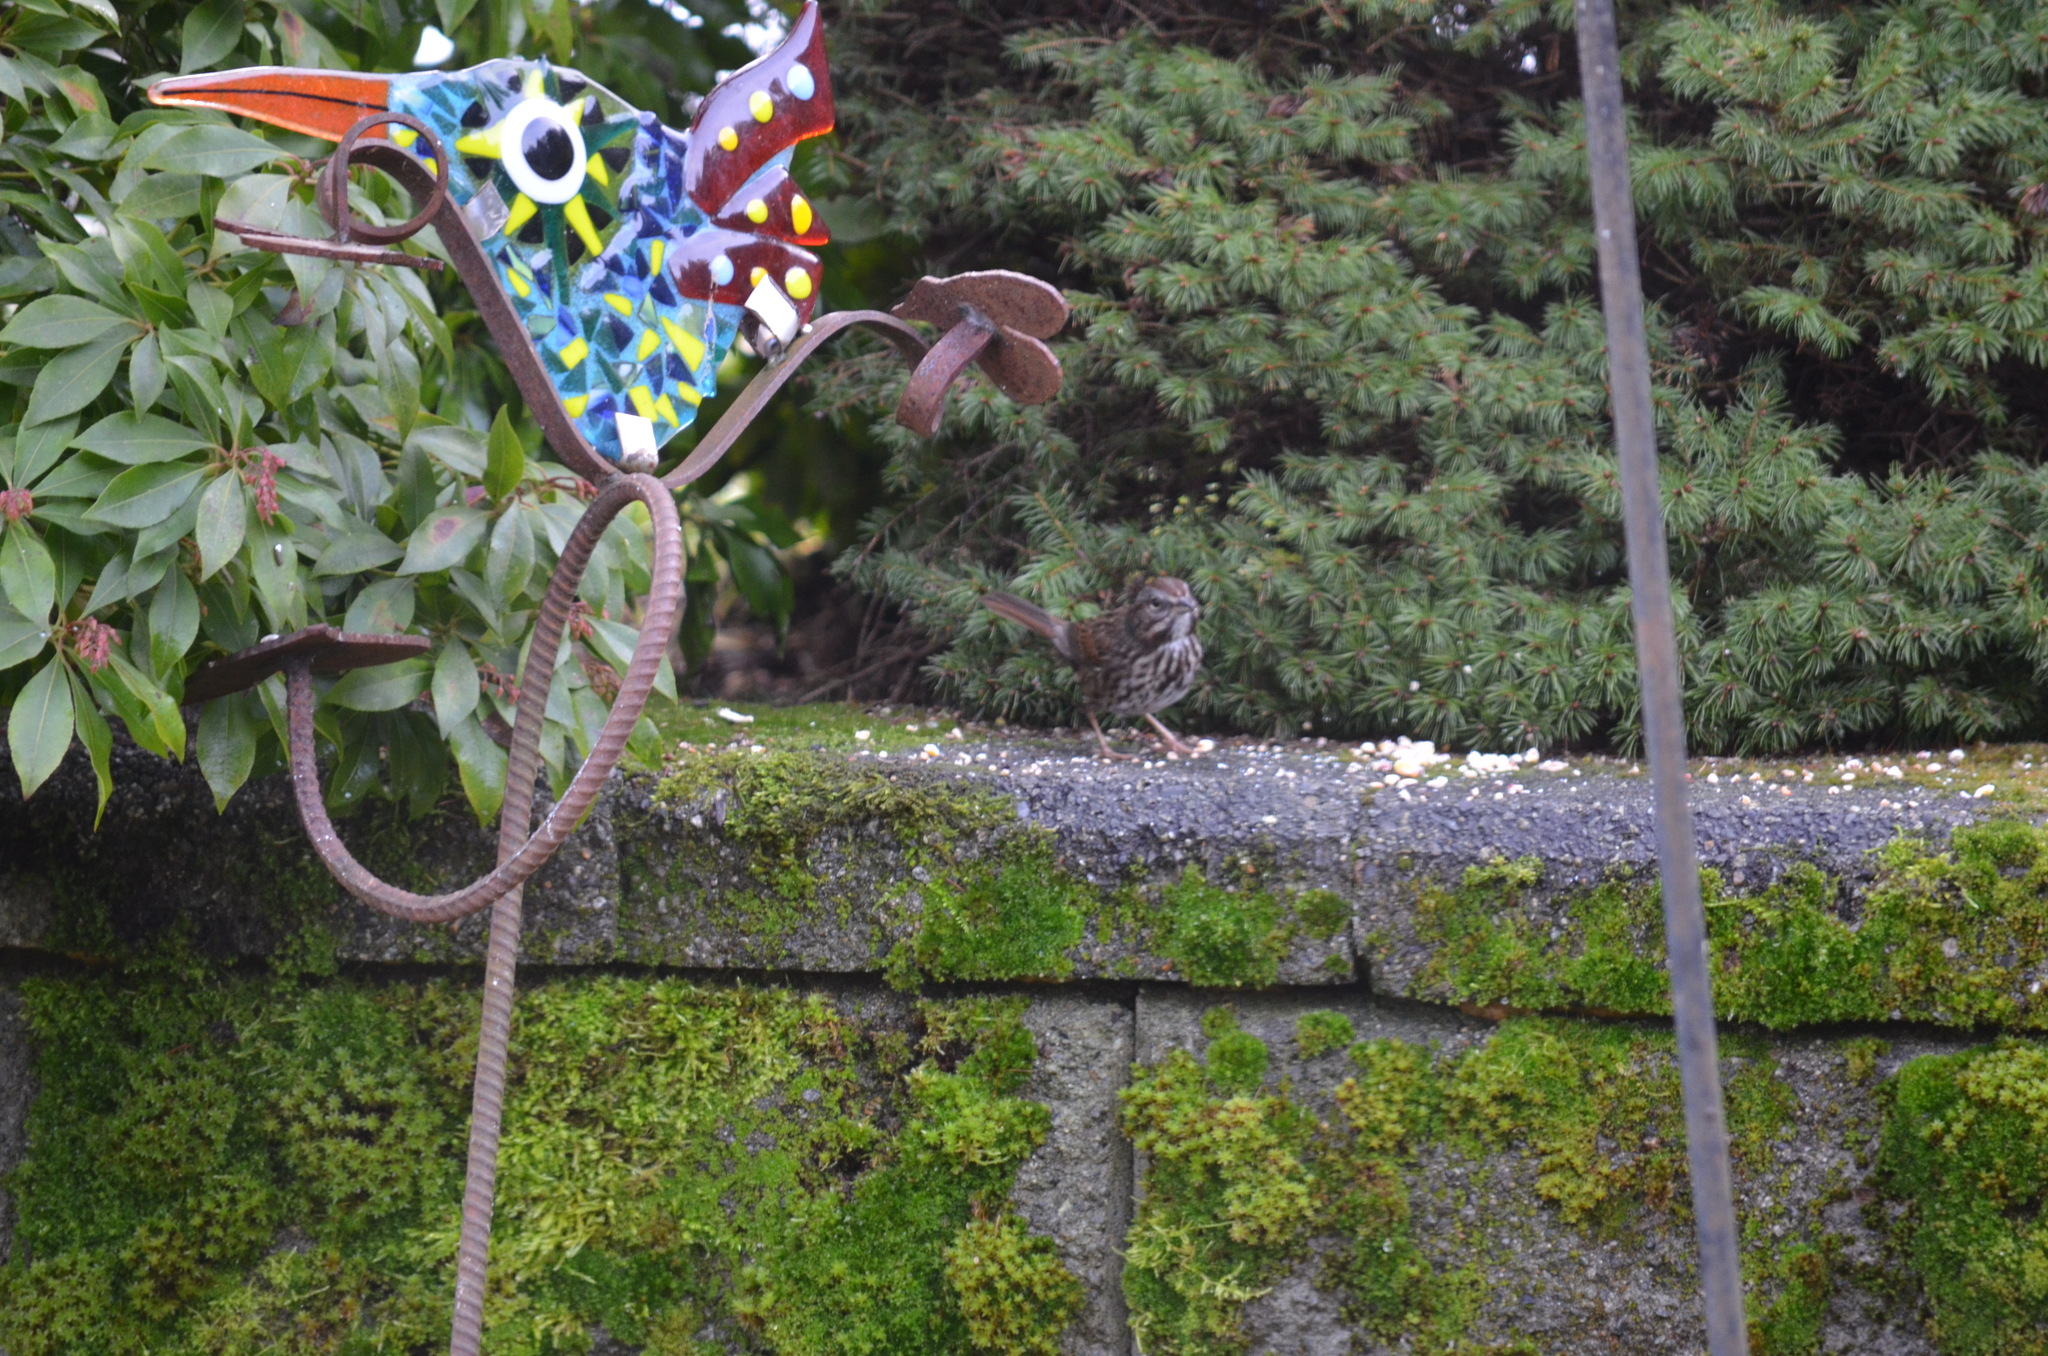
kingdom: Animalia
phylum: Chordata
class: Aves
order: Passeriformes
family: Passerellidae
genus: Melospiza
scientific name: Melospiza melodia
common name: Song sparrow
